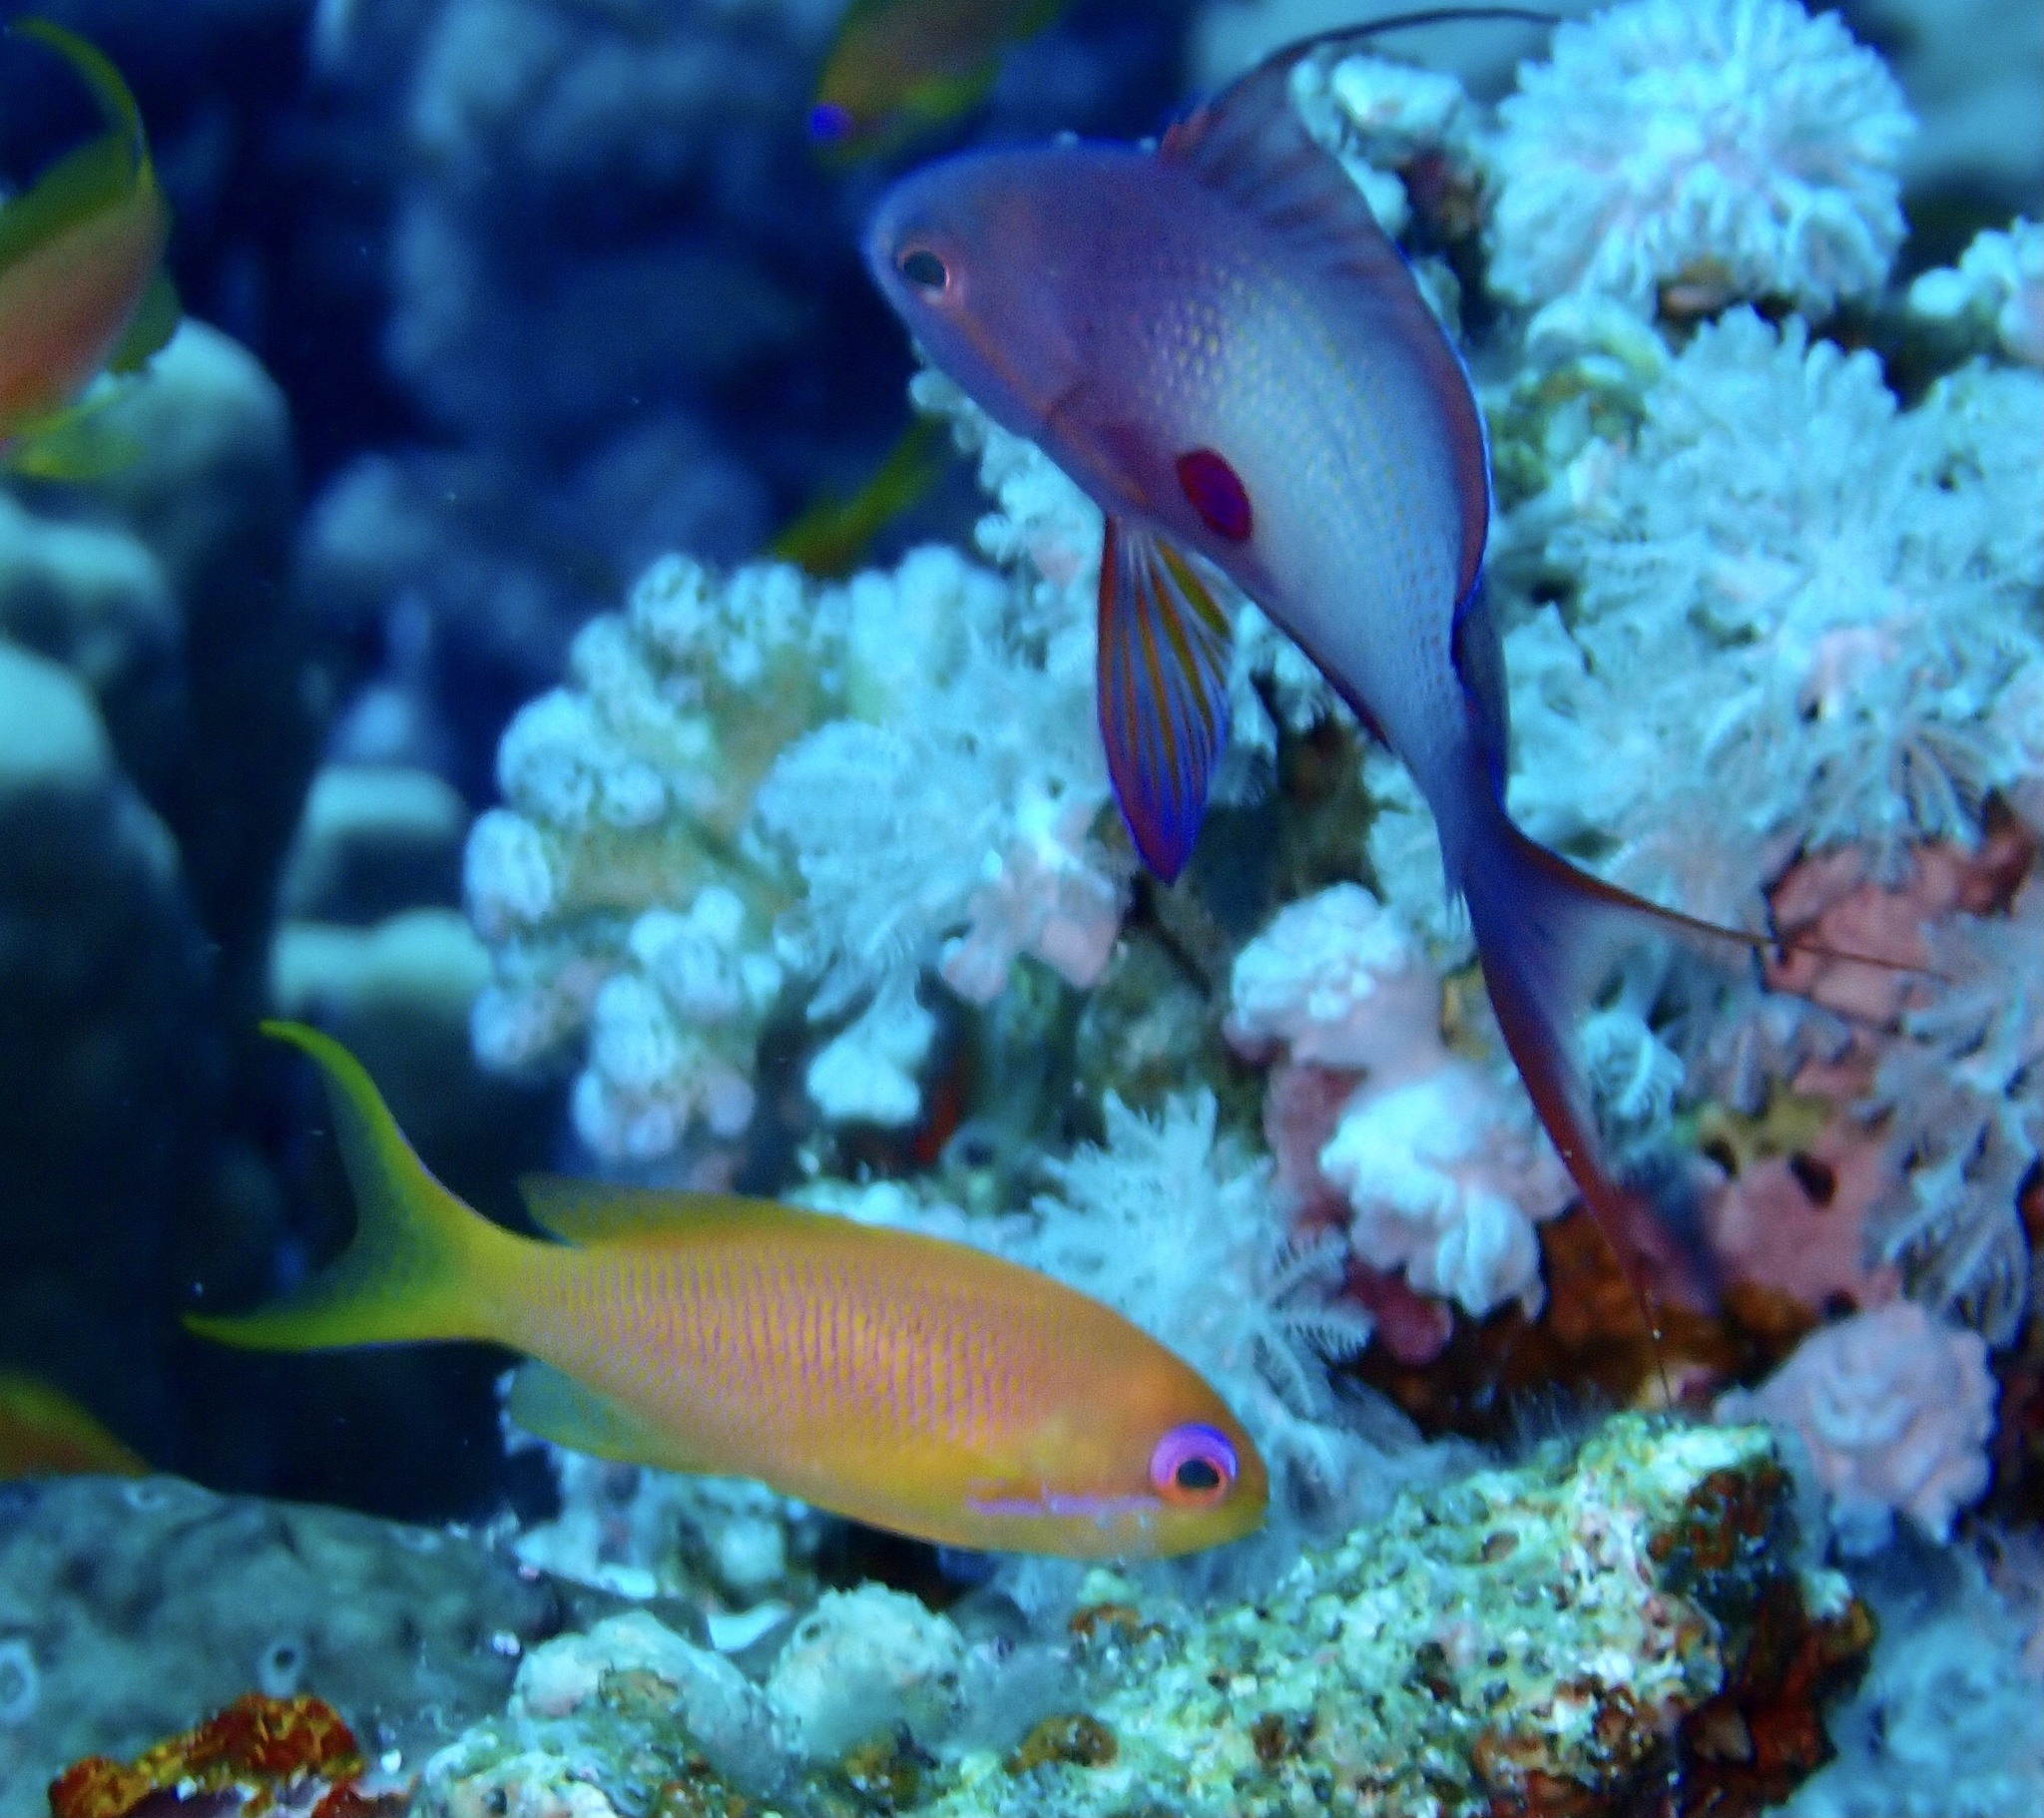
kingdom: Animalia
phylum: Chordata
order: Perciformes
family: Serranidae
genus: Pseudanthias
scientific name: Pseudanthias squamipinnis
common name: Scalefin anthias
